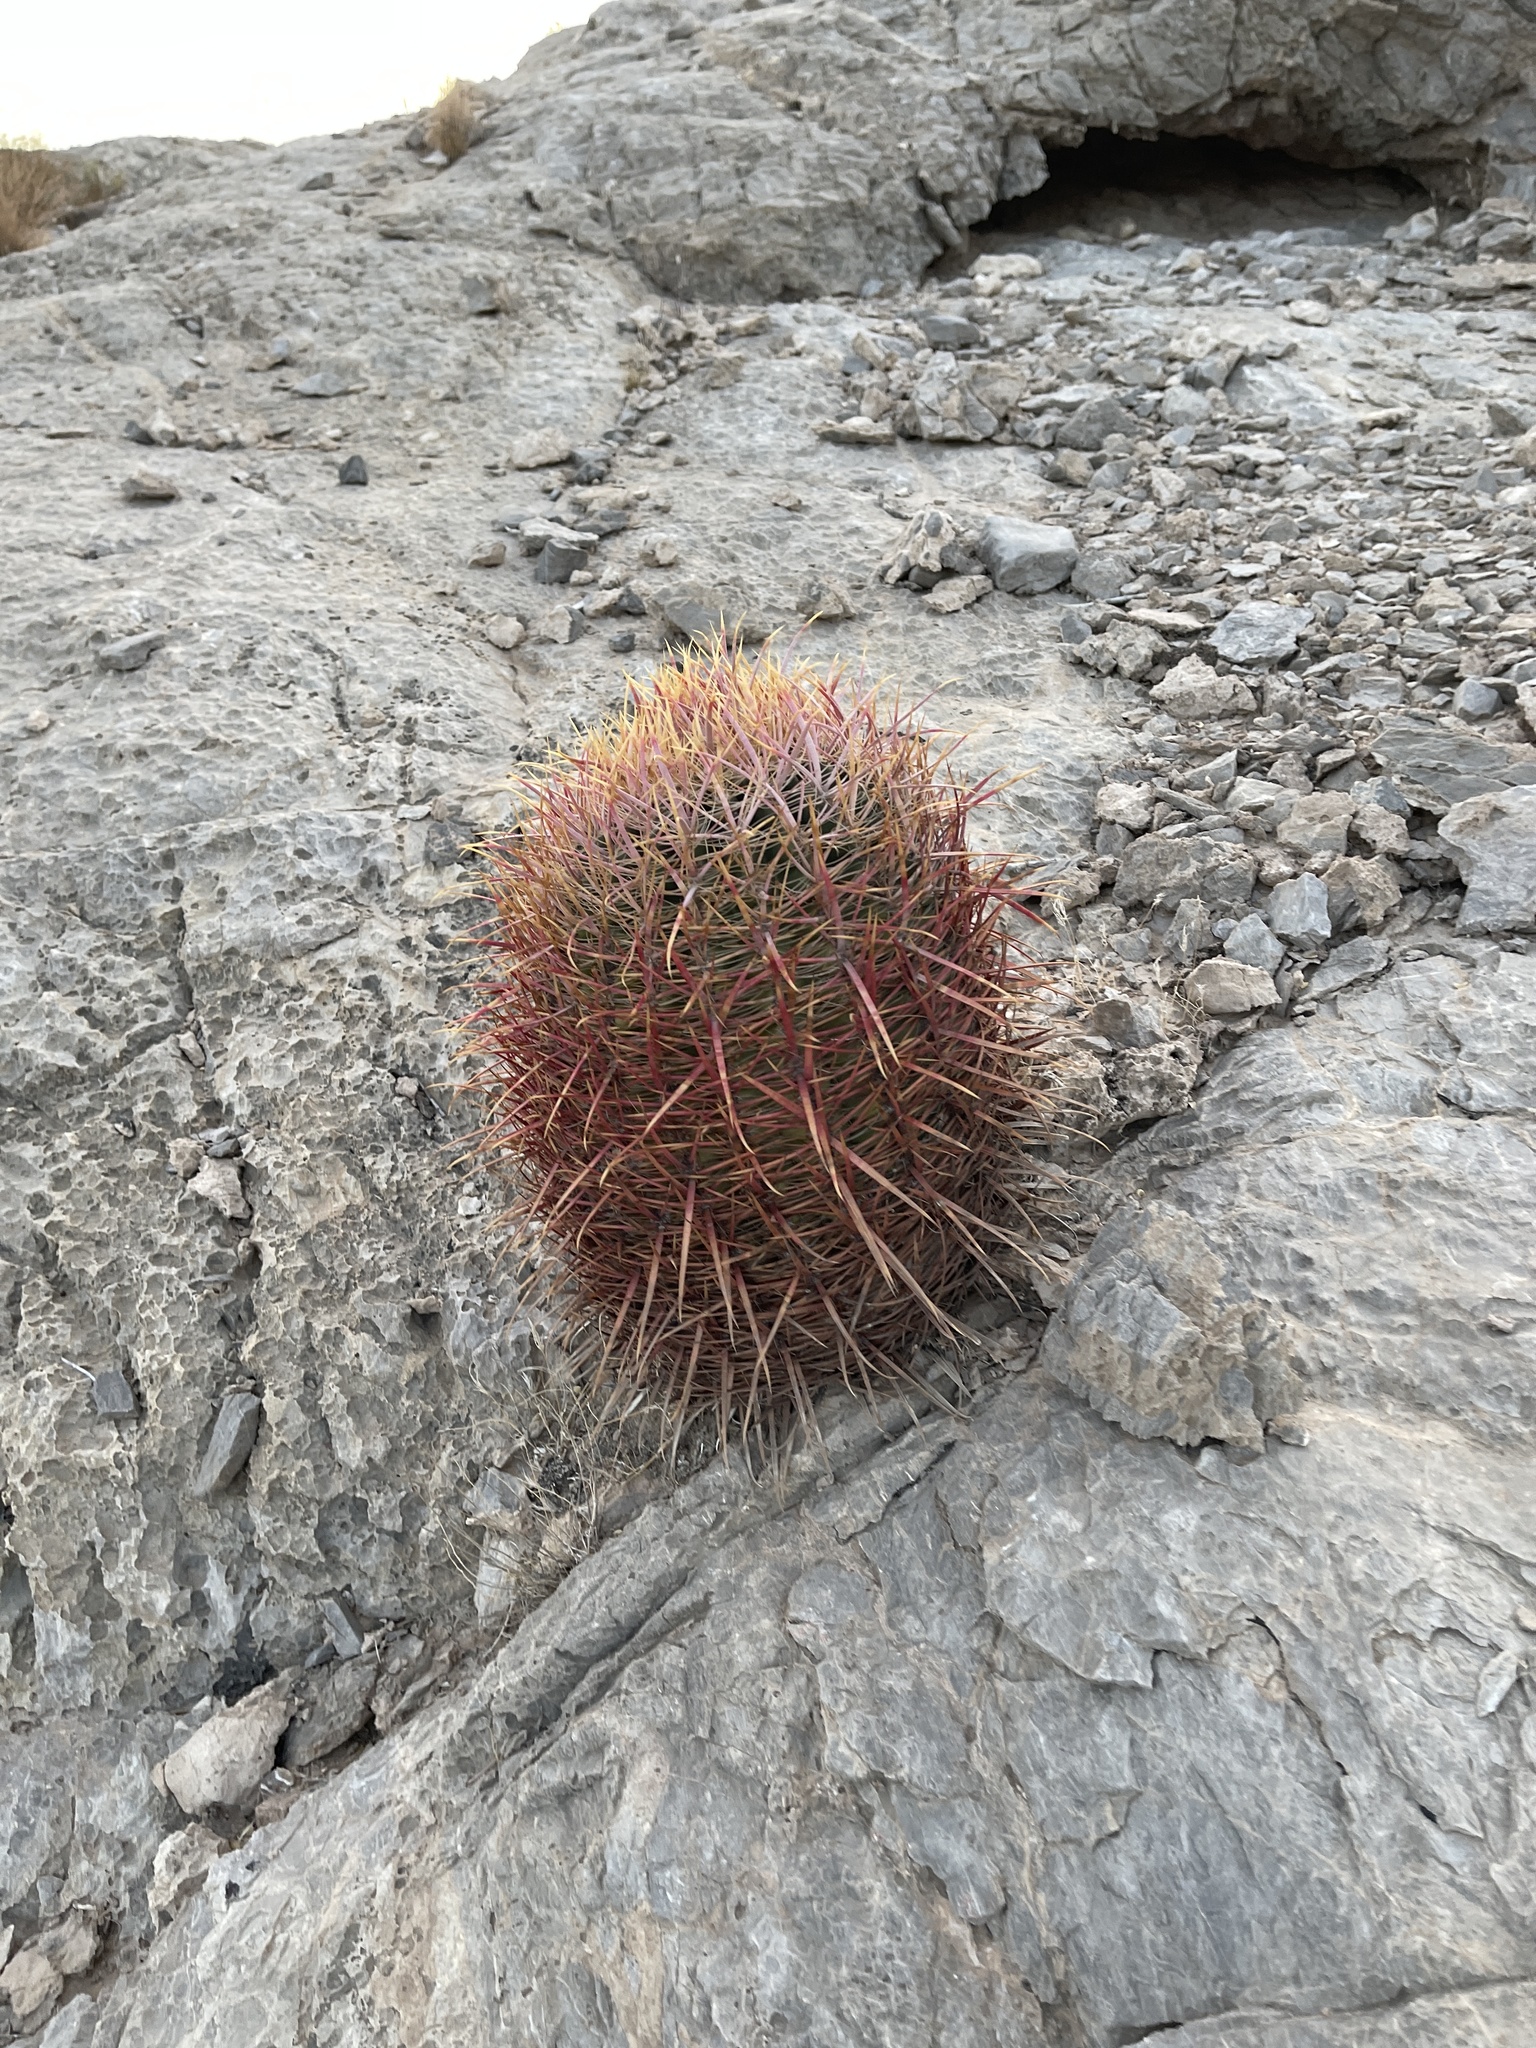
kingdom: Plantae
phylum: Tracheophyta
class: Magnoliopsida
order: Caryophyllales
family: Cactaceae
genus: Ferocactus
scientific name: Ferocactus cylindraceus
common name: California barrel cactus
